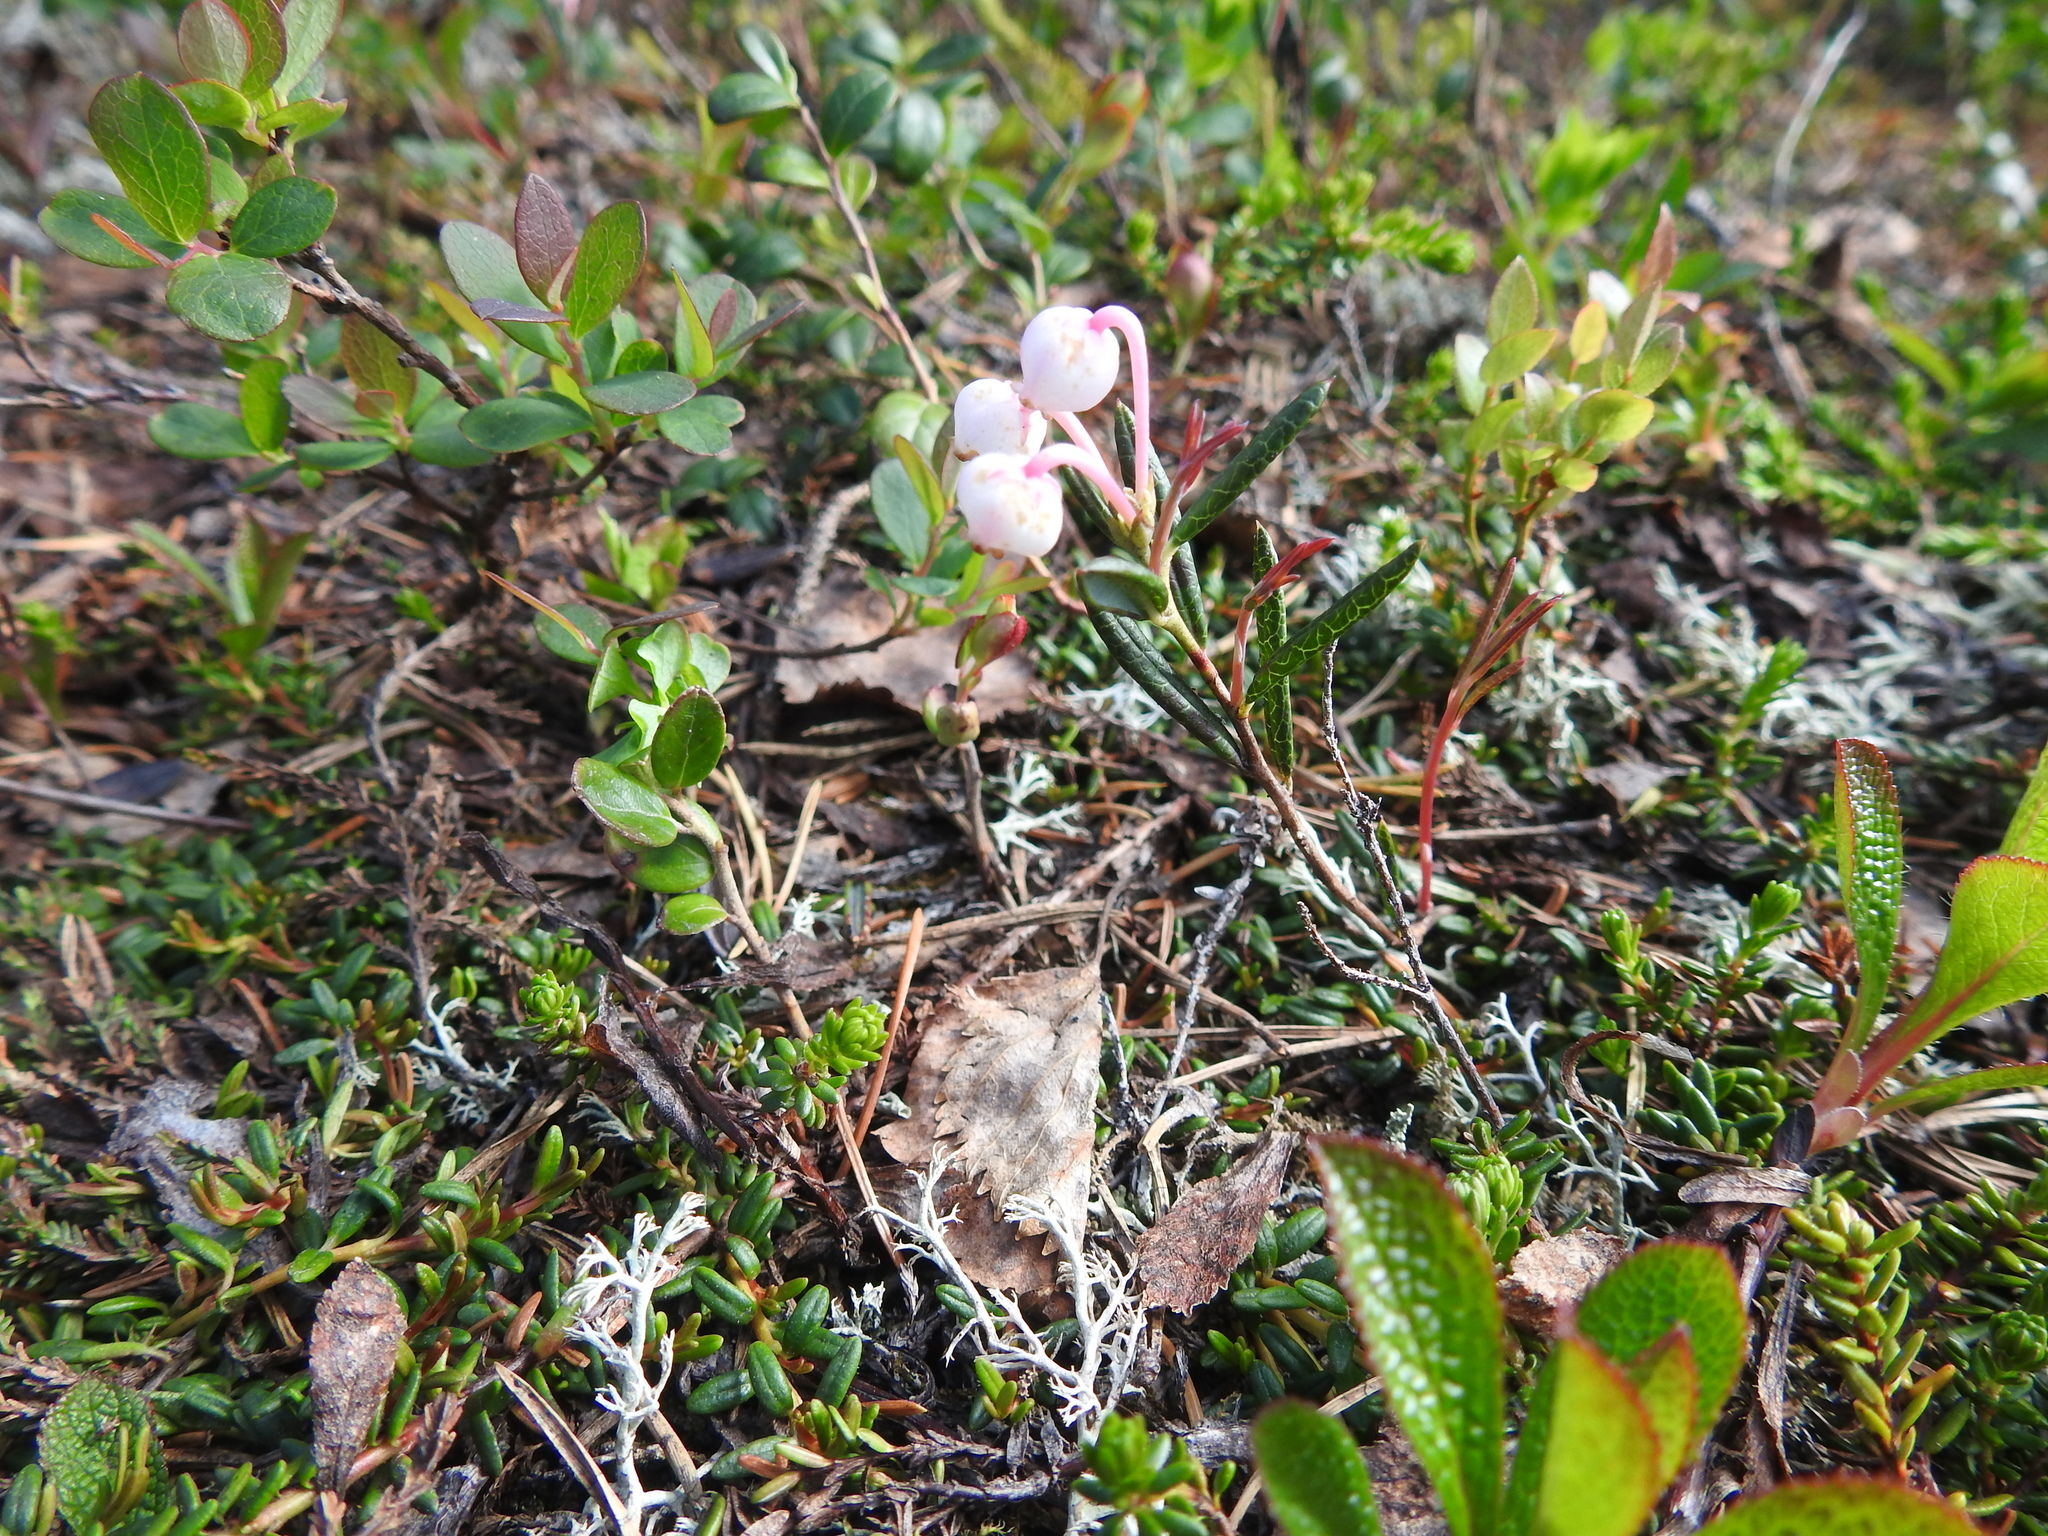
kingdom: Plantae
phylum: Tracheophyta
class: Magnoliopsida
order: Ericales
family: Ericaceae
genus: Andromeda
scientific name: Andromeda polifolia
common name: Bog-rosemary
